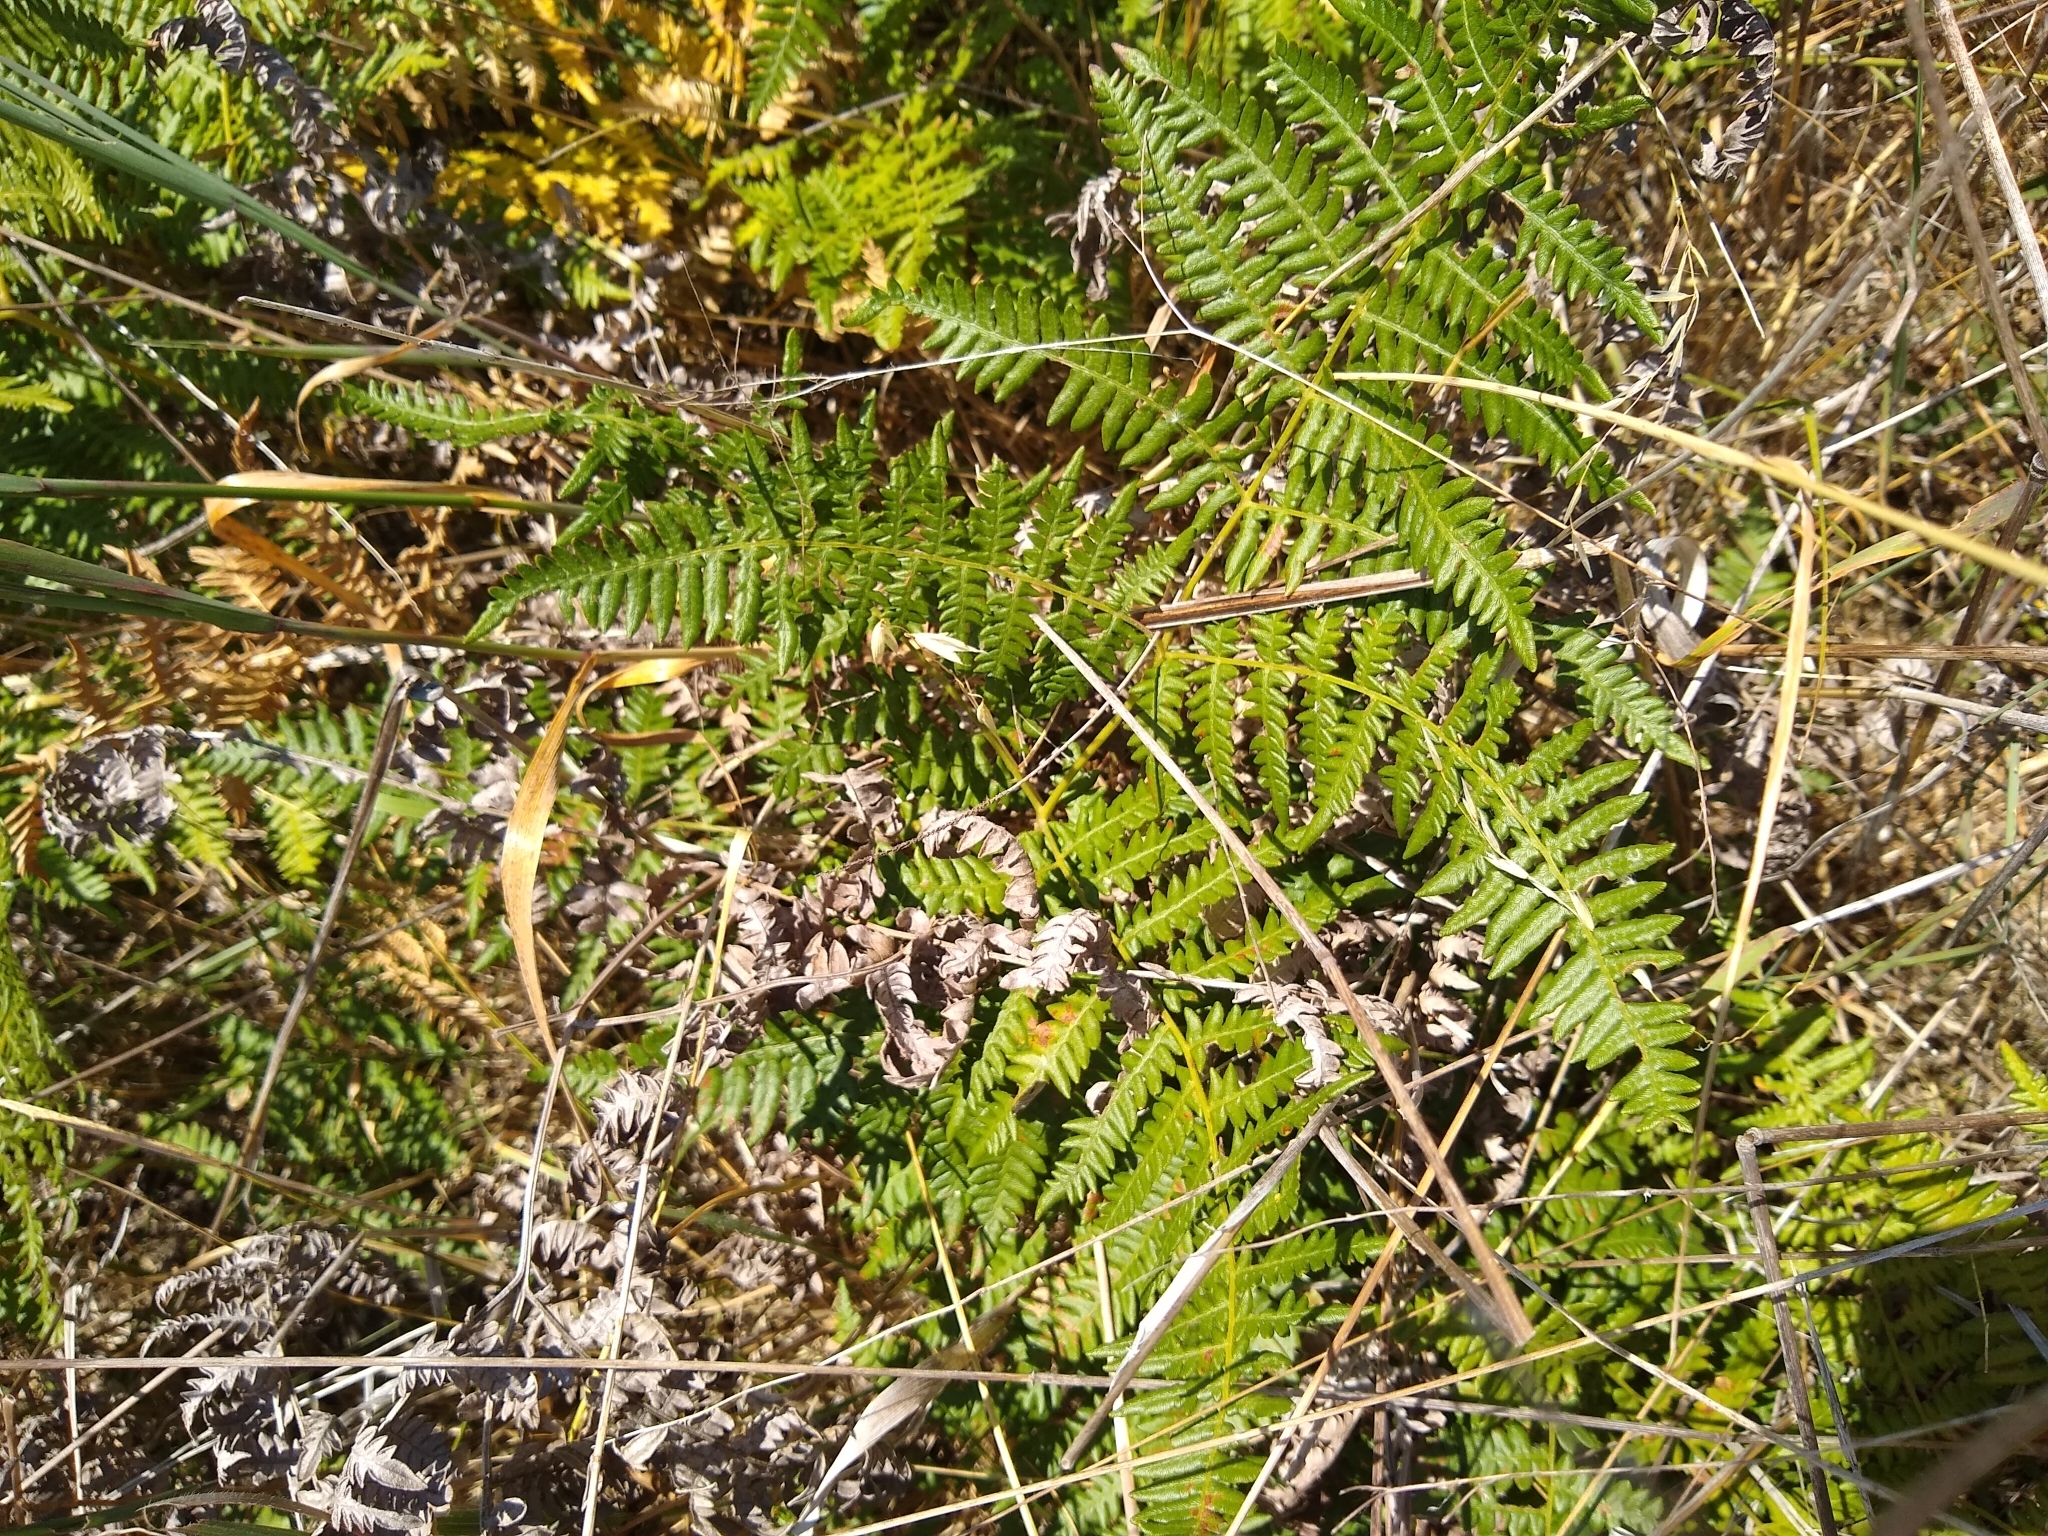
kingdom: Plantae
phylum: Tracheophyta
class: Polypodiopsida
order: Polypodiales
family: Dennstaedtiaceae
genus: Pteridium
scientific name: Pteridium aquilinum
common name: Bracken
